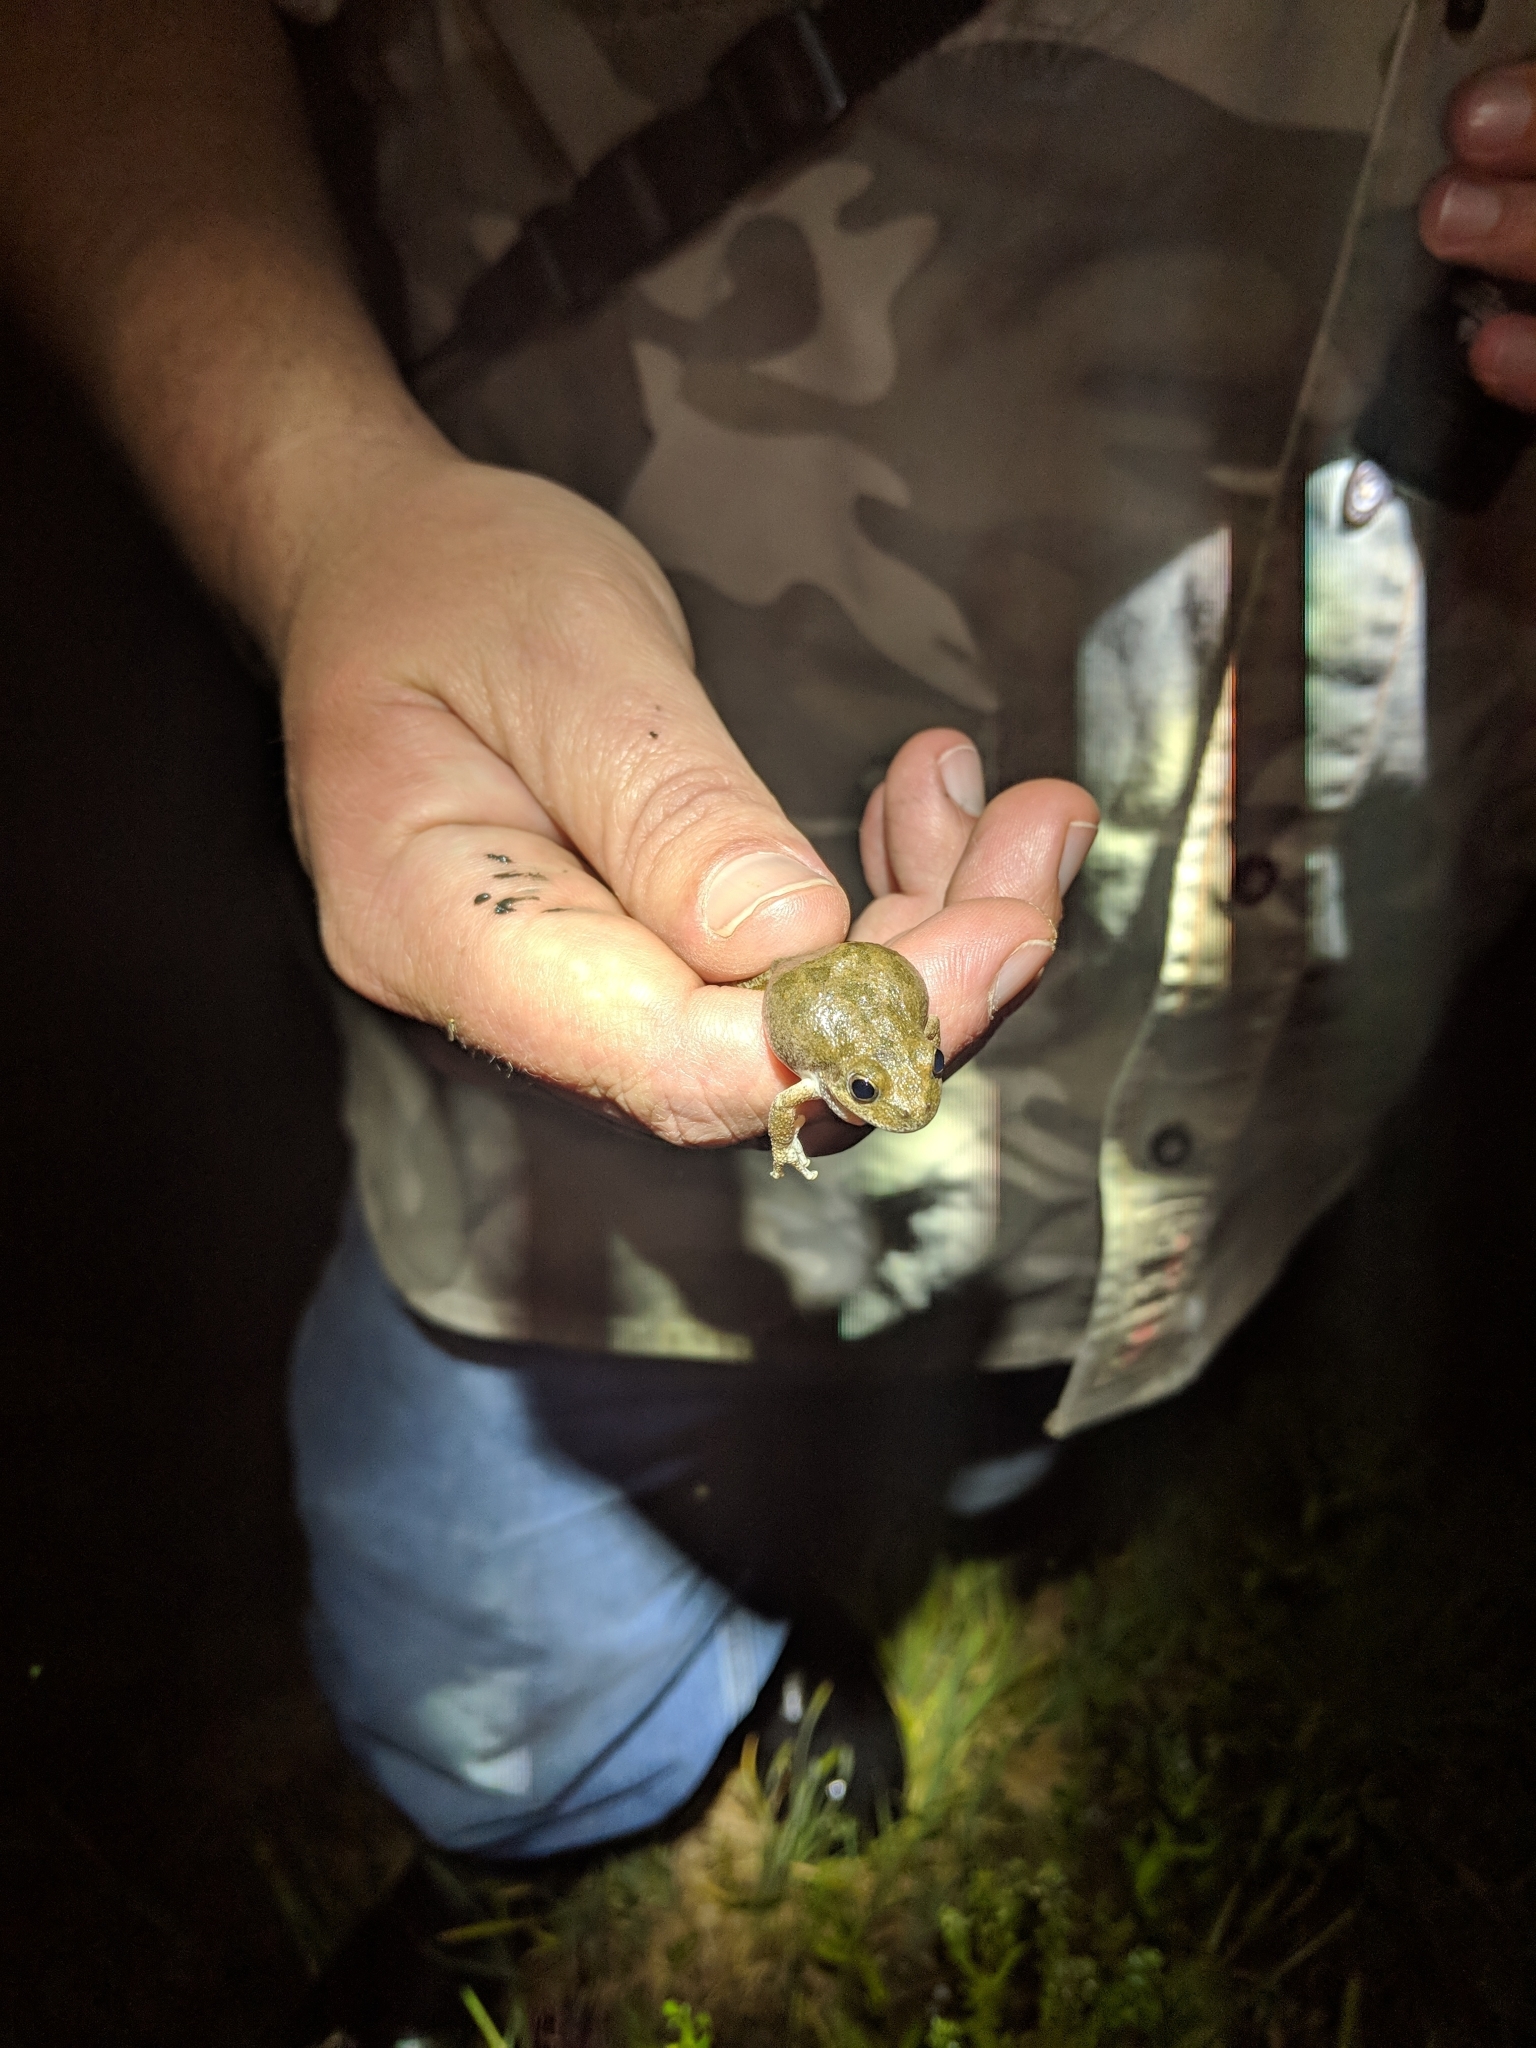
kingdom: Animalia
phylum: Chordata
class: Amphibia
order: Anura
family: Hylidae
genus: Pseudacris
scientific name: Pseudacris cadaverina
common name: California chorus frog
